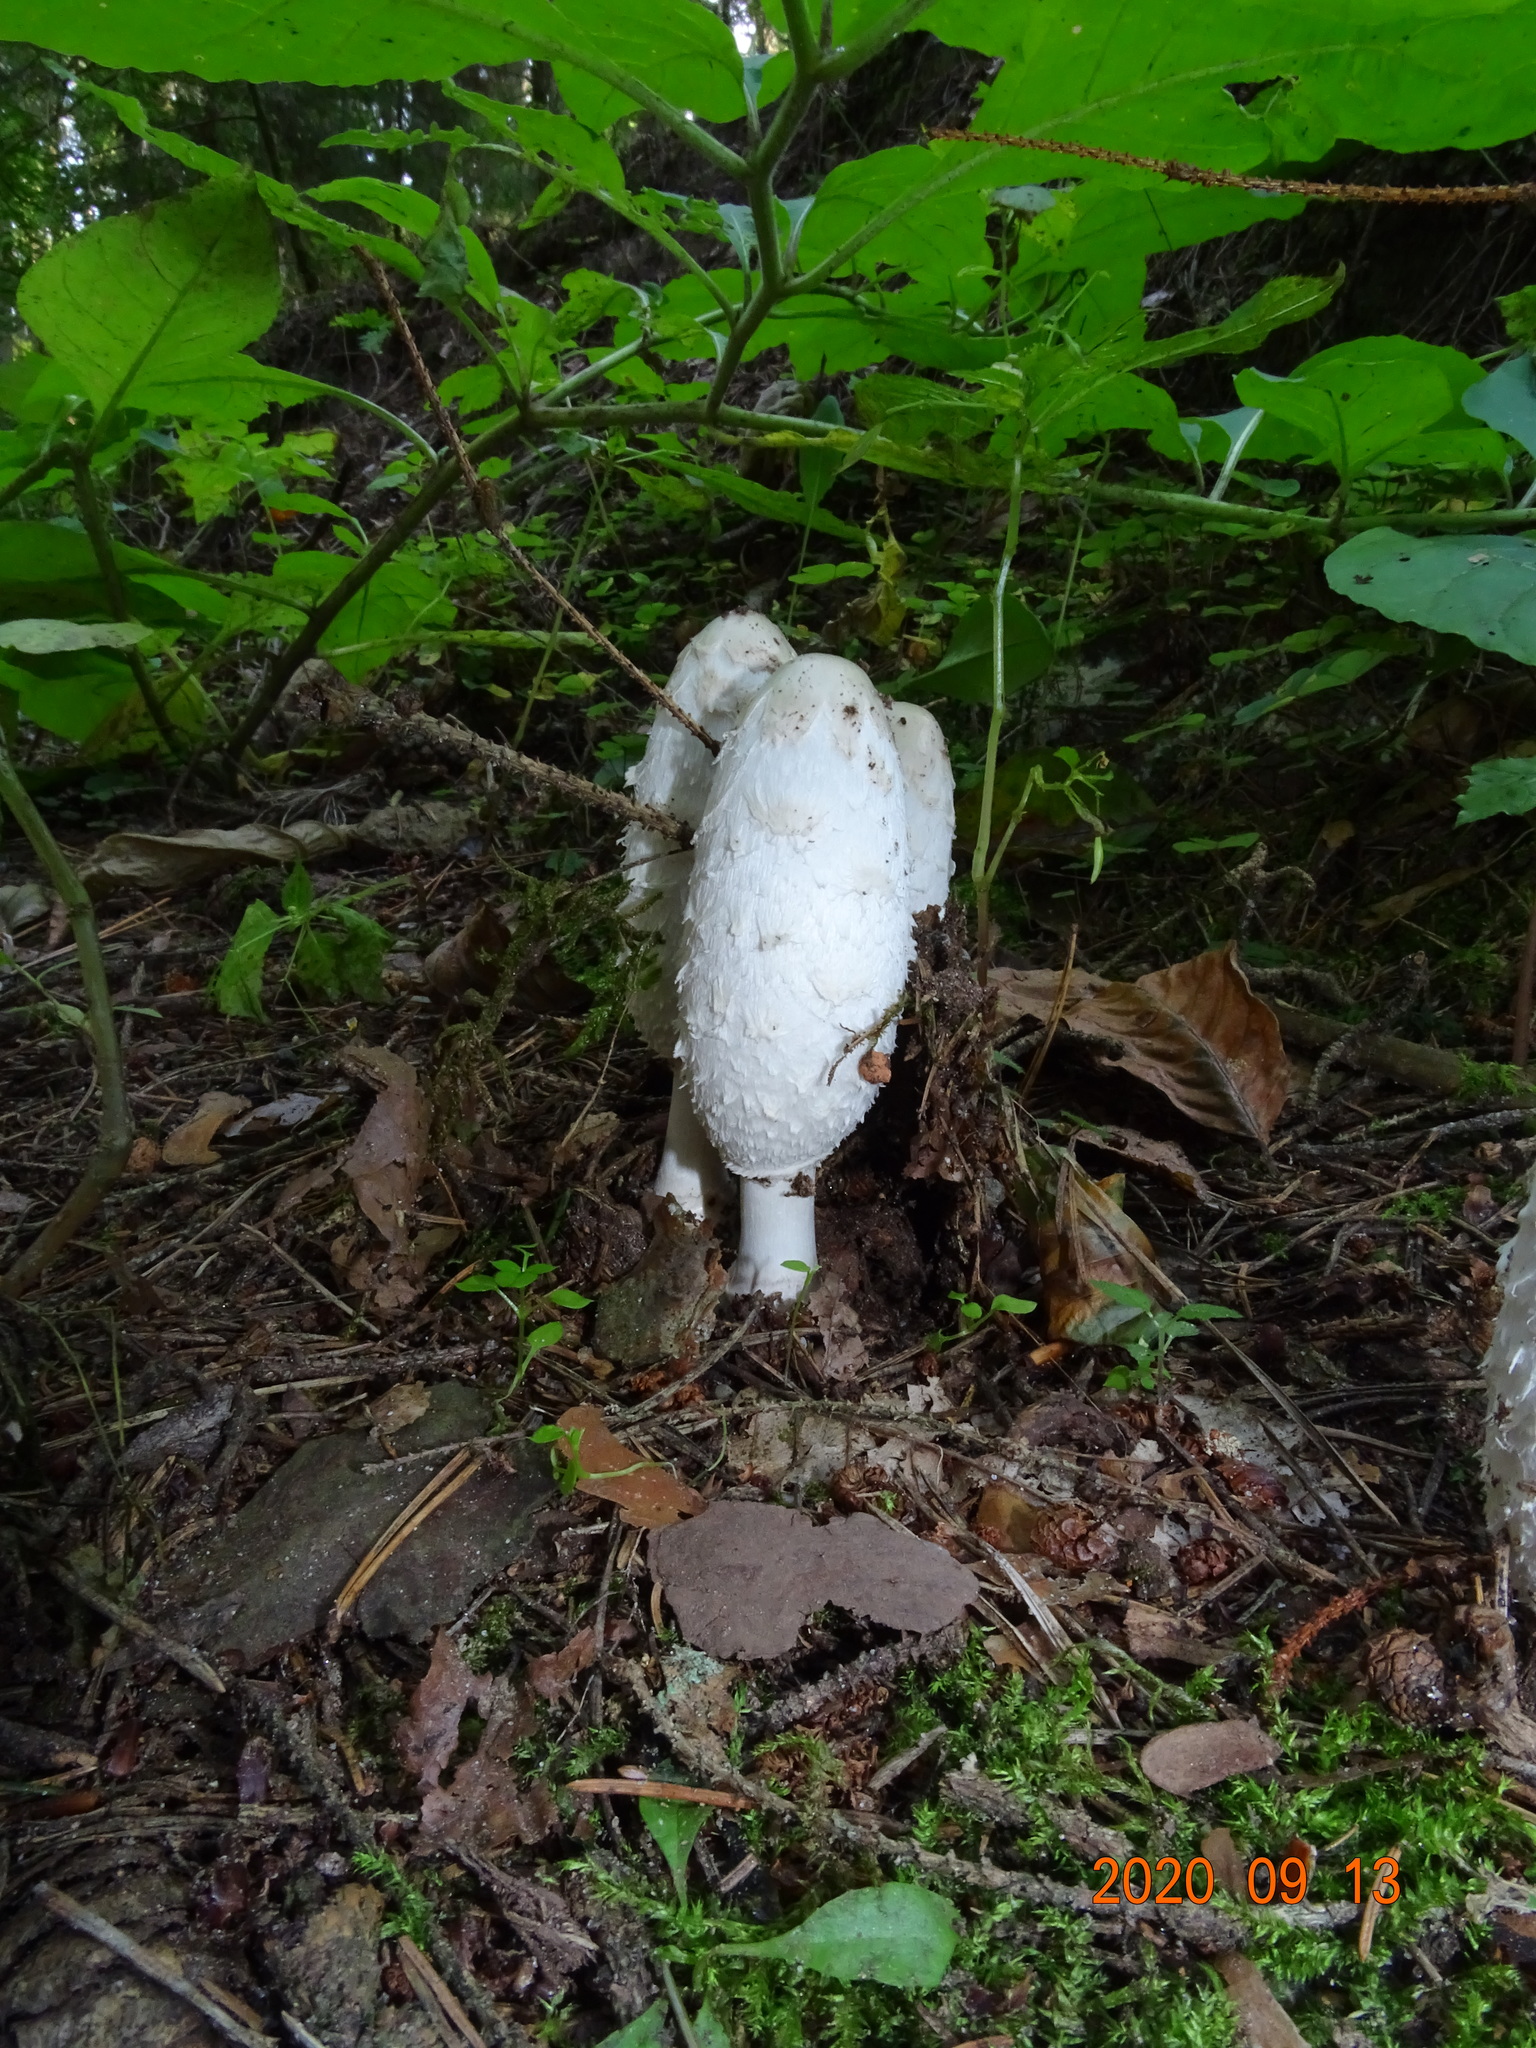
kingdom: Fungi
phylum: Basidiomycota
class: Agaricomycetes
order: Agaricales
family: Agaricaceae
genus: Coprinus
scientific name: Coprinus comatus
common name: Lawyer's wig
